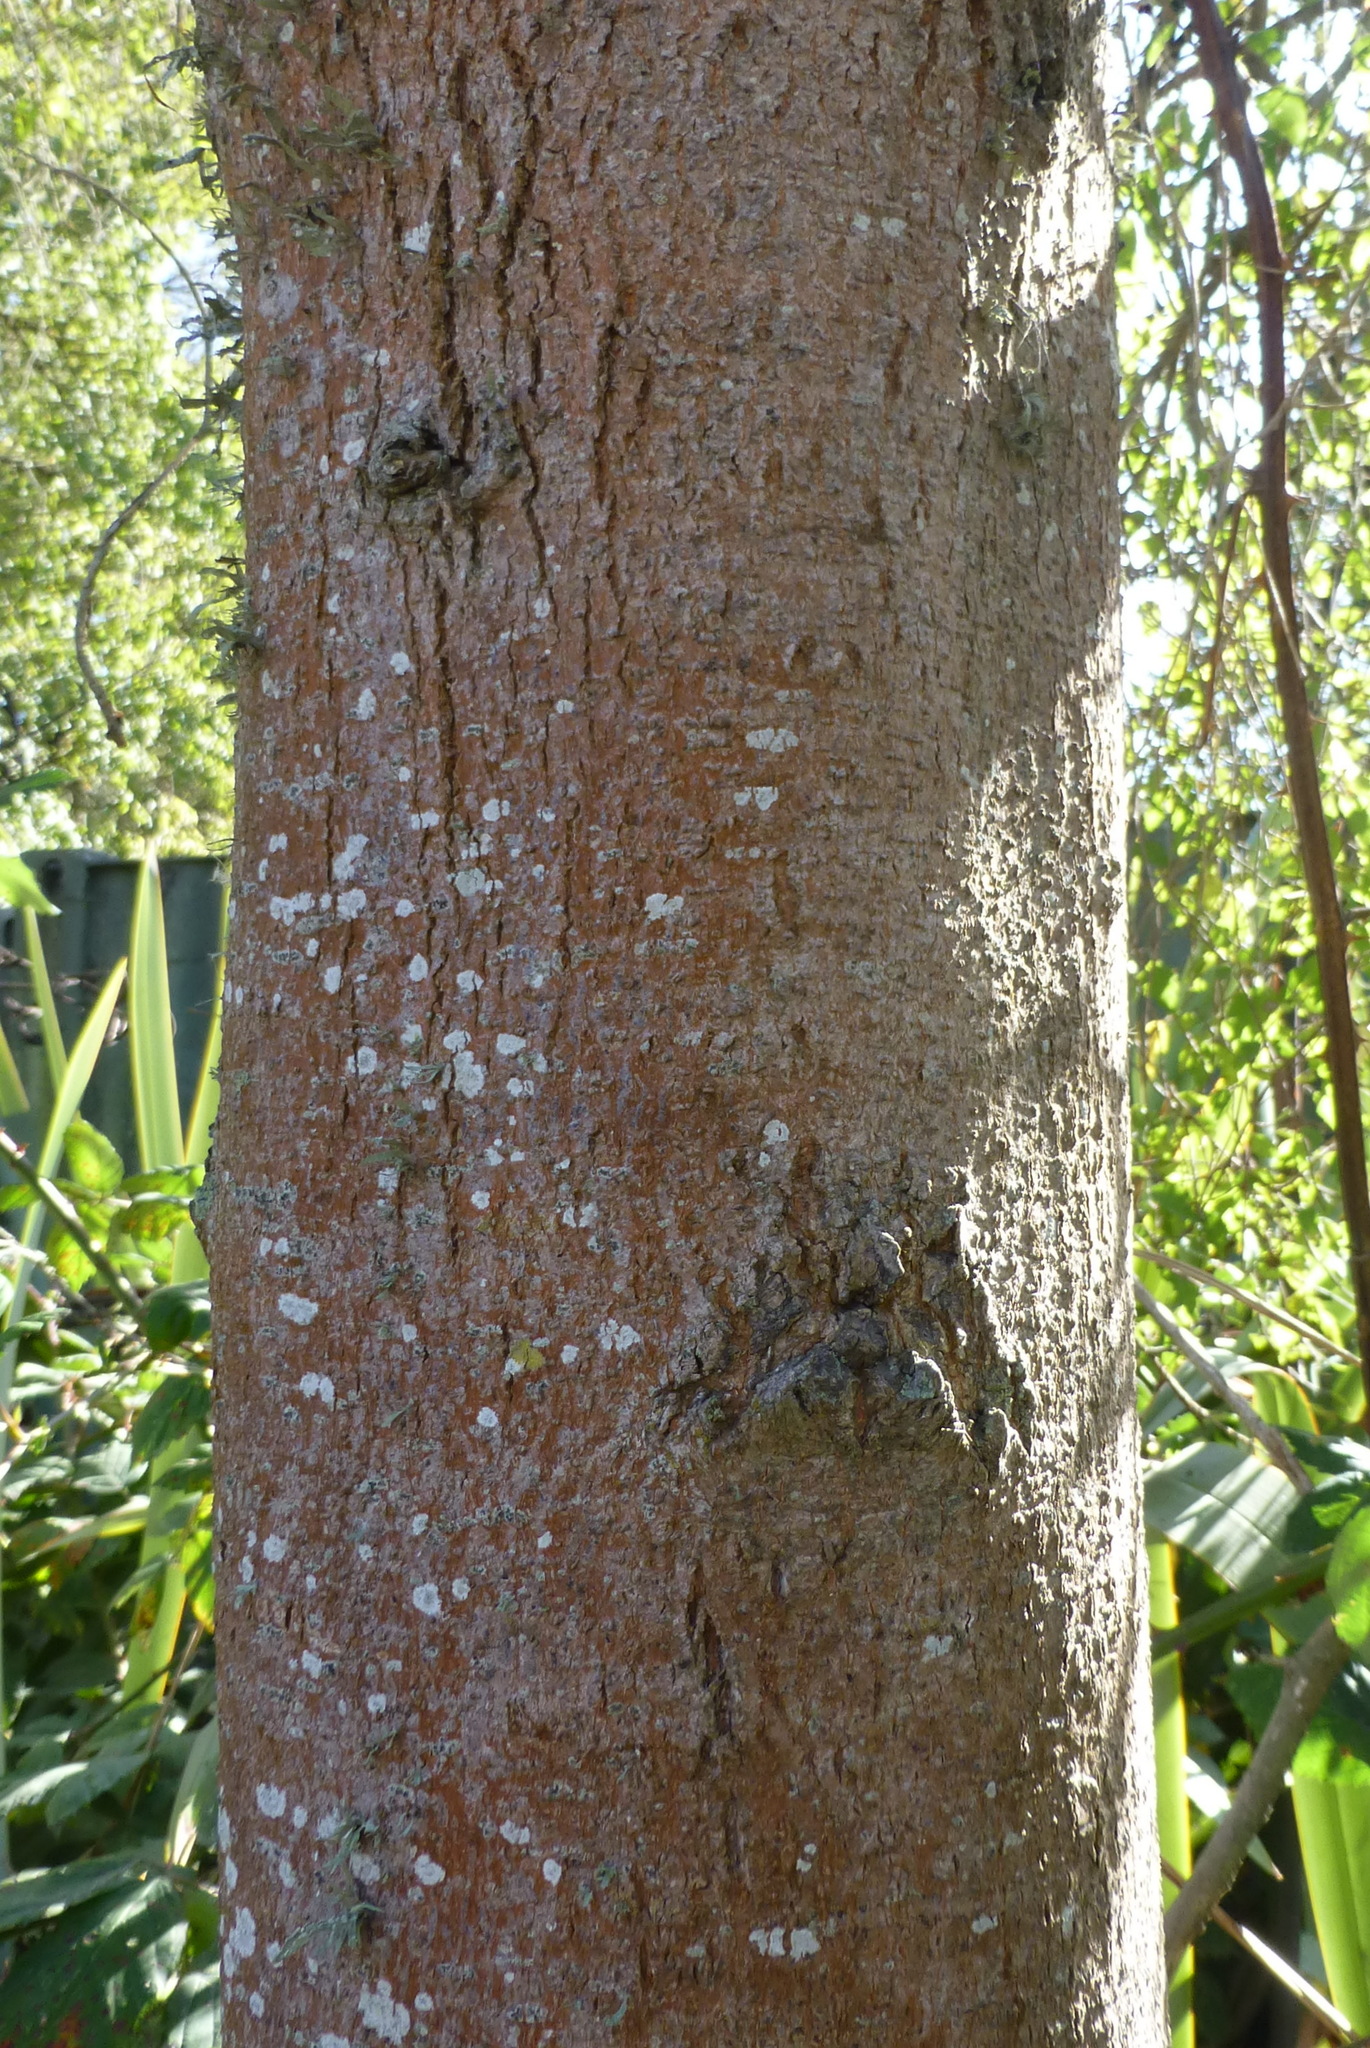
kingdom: Plantae
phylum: Tracheophyta
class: Magnoliopsida
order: Malvales
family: Malvaceae
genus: Plagianthus
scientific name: Plagianthus regius
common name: Manatu
